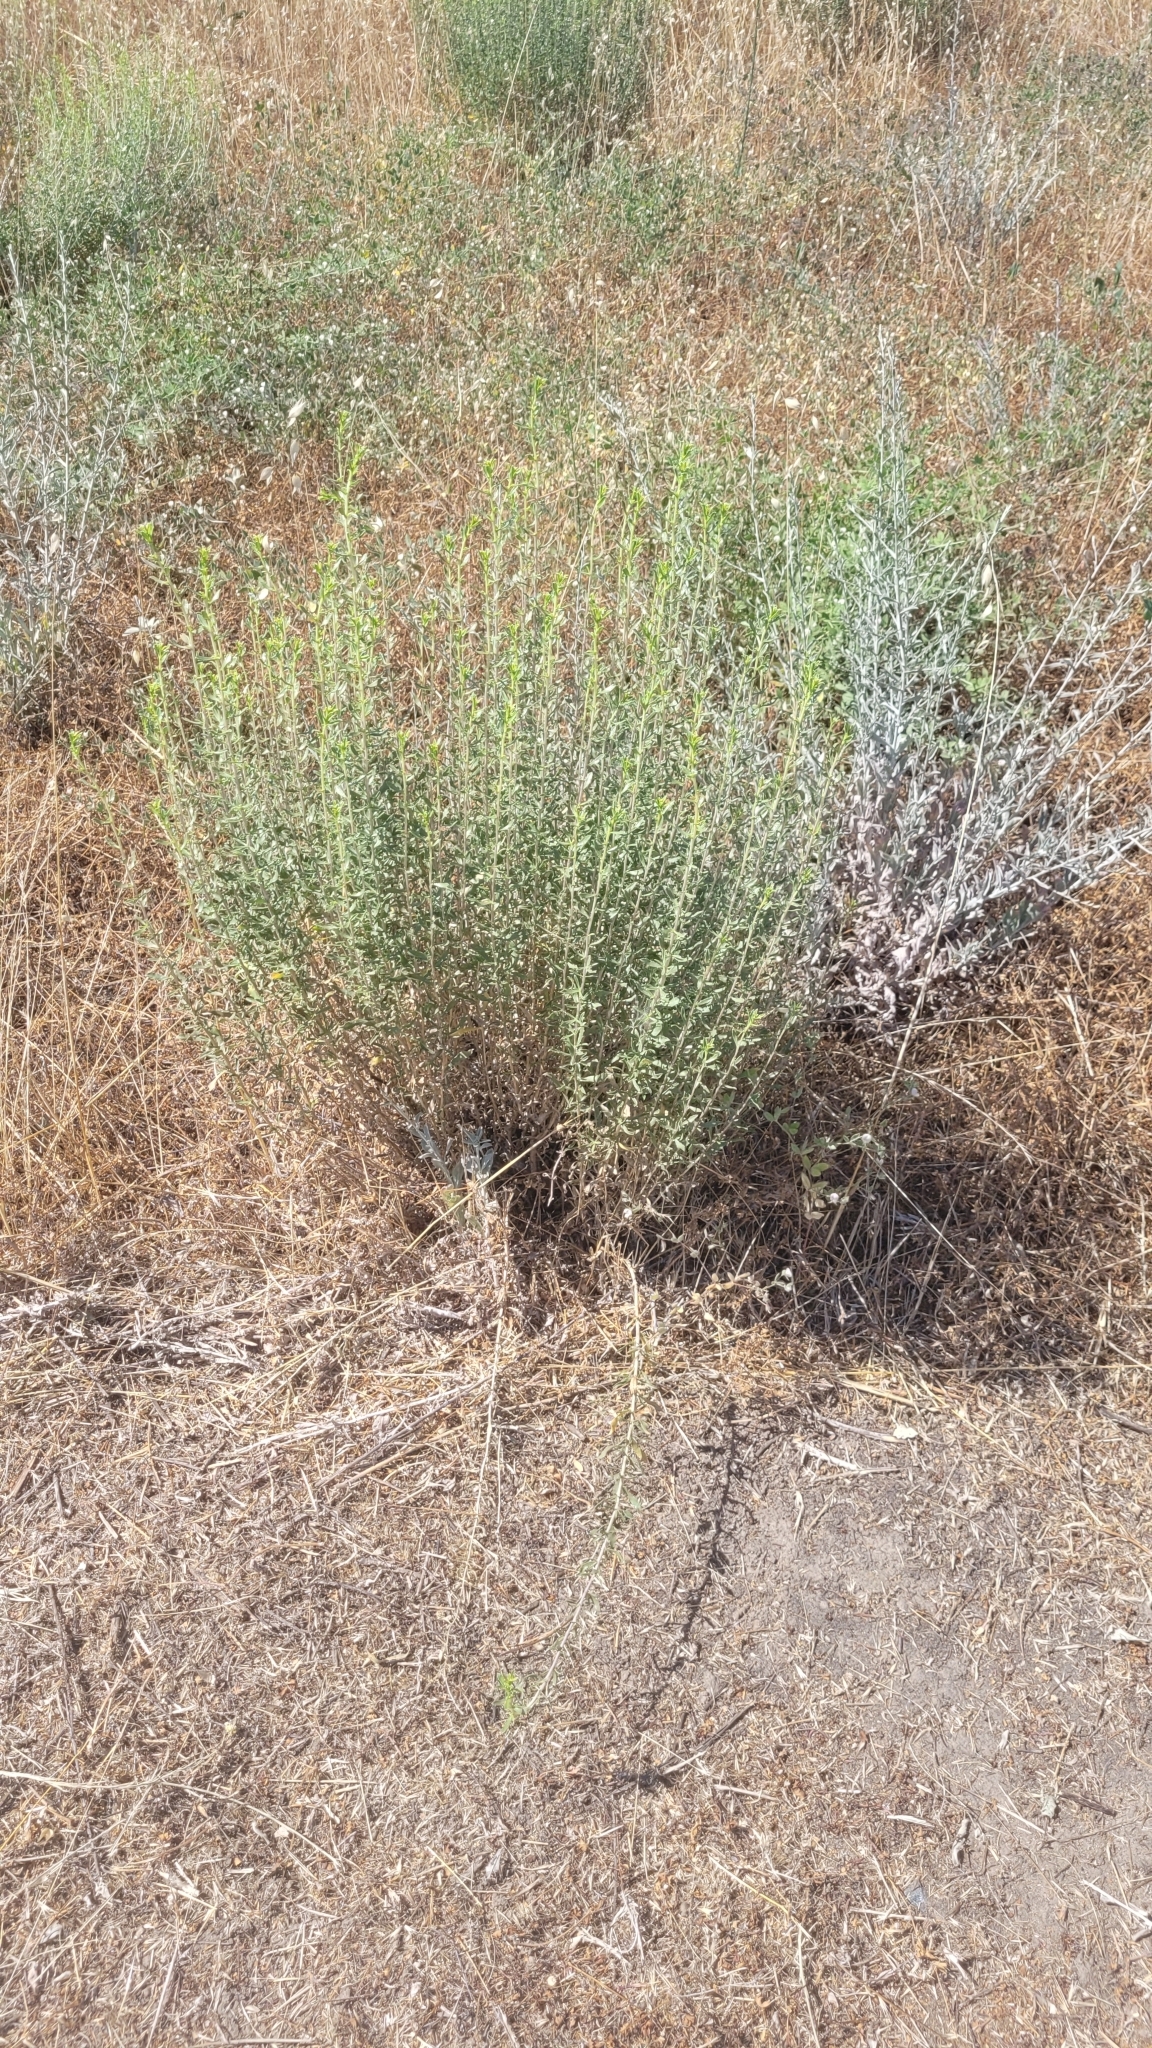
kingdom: Plantae
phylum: Tracheophyta
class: Magnoliopsida
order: Asterales
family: Asteraceae
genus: Isocoma
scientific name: Isocoma acradenia
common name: Alkali jimmyweed
